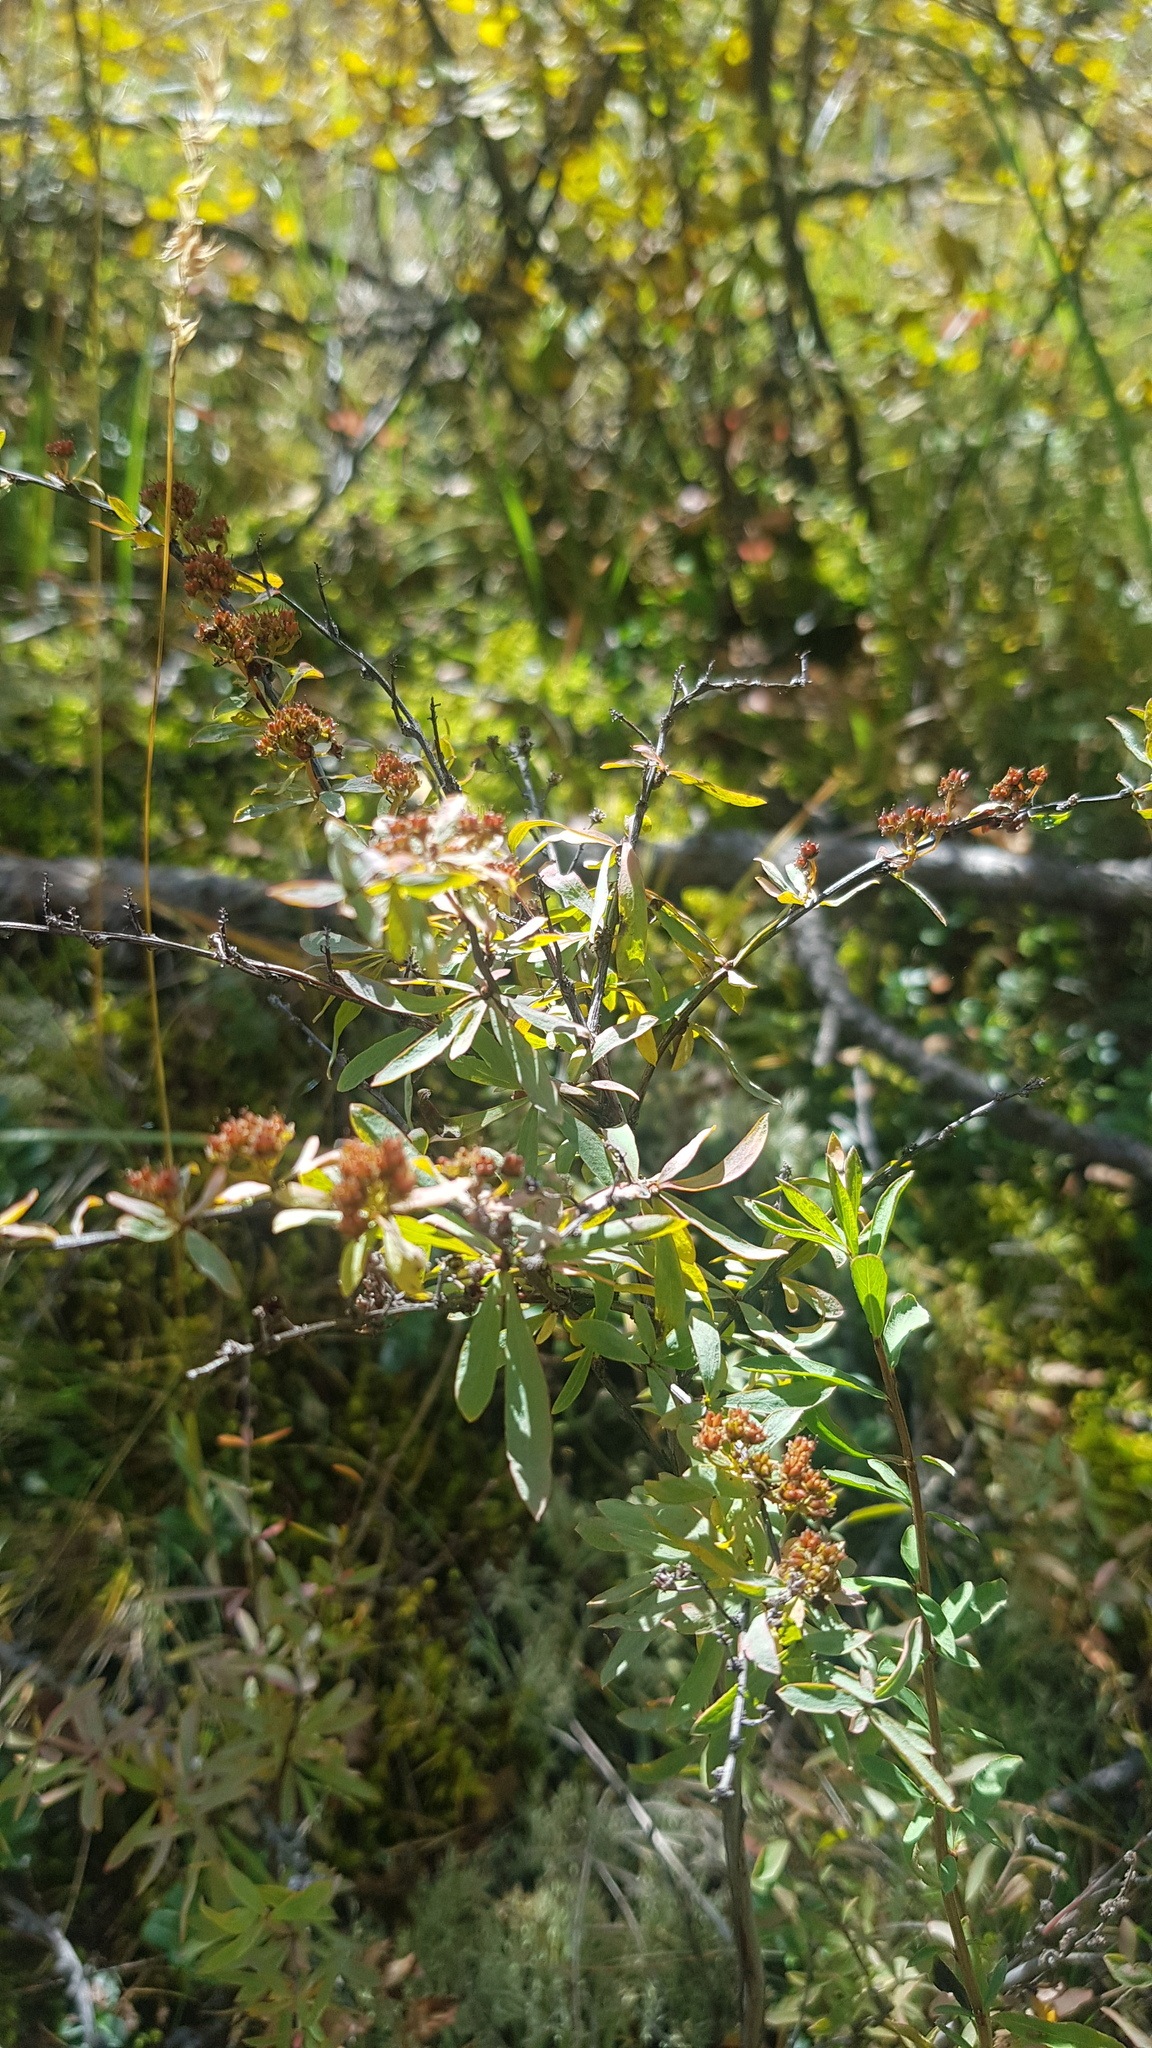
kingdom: Plantae
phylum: Tracheophyta
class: Magnoliopsida
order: Rosales
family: Rosaceae
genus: Spiraea
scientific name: Spiraea alpina
